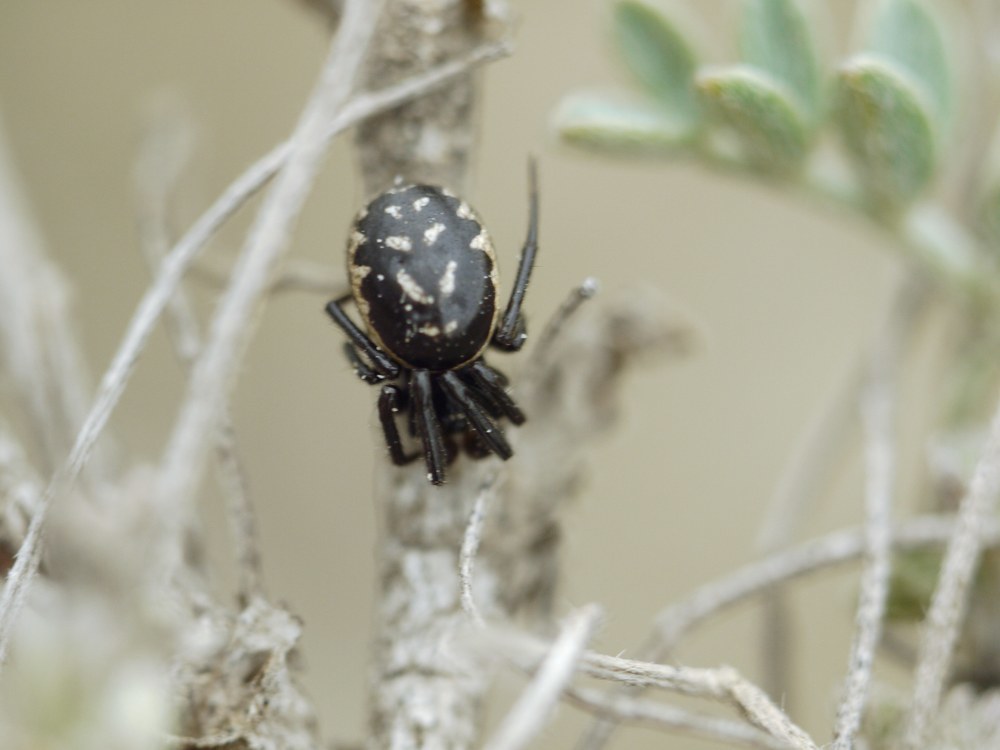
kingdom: Animalia
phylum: Arthropoda
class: Arachnida
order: Araneae
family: Theridiidae
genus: Steatoda
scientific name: Steatoda albomaculata
